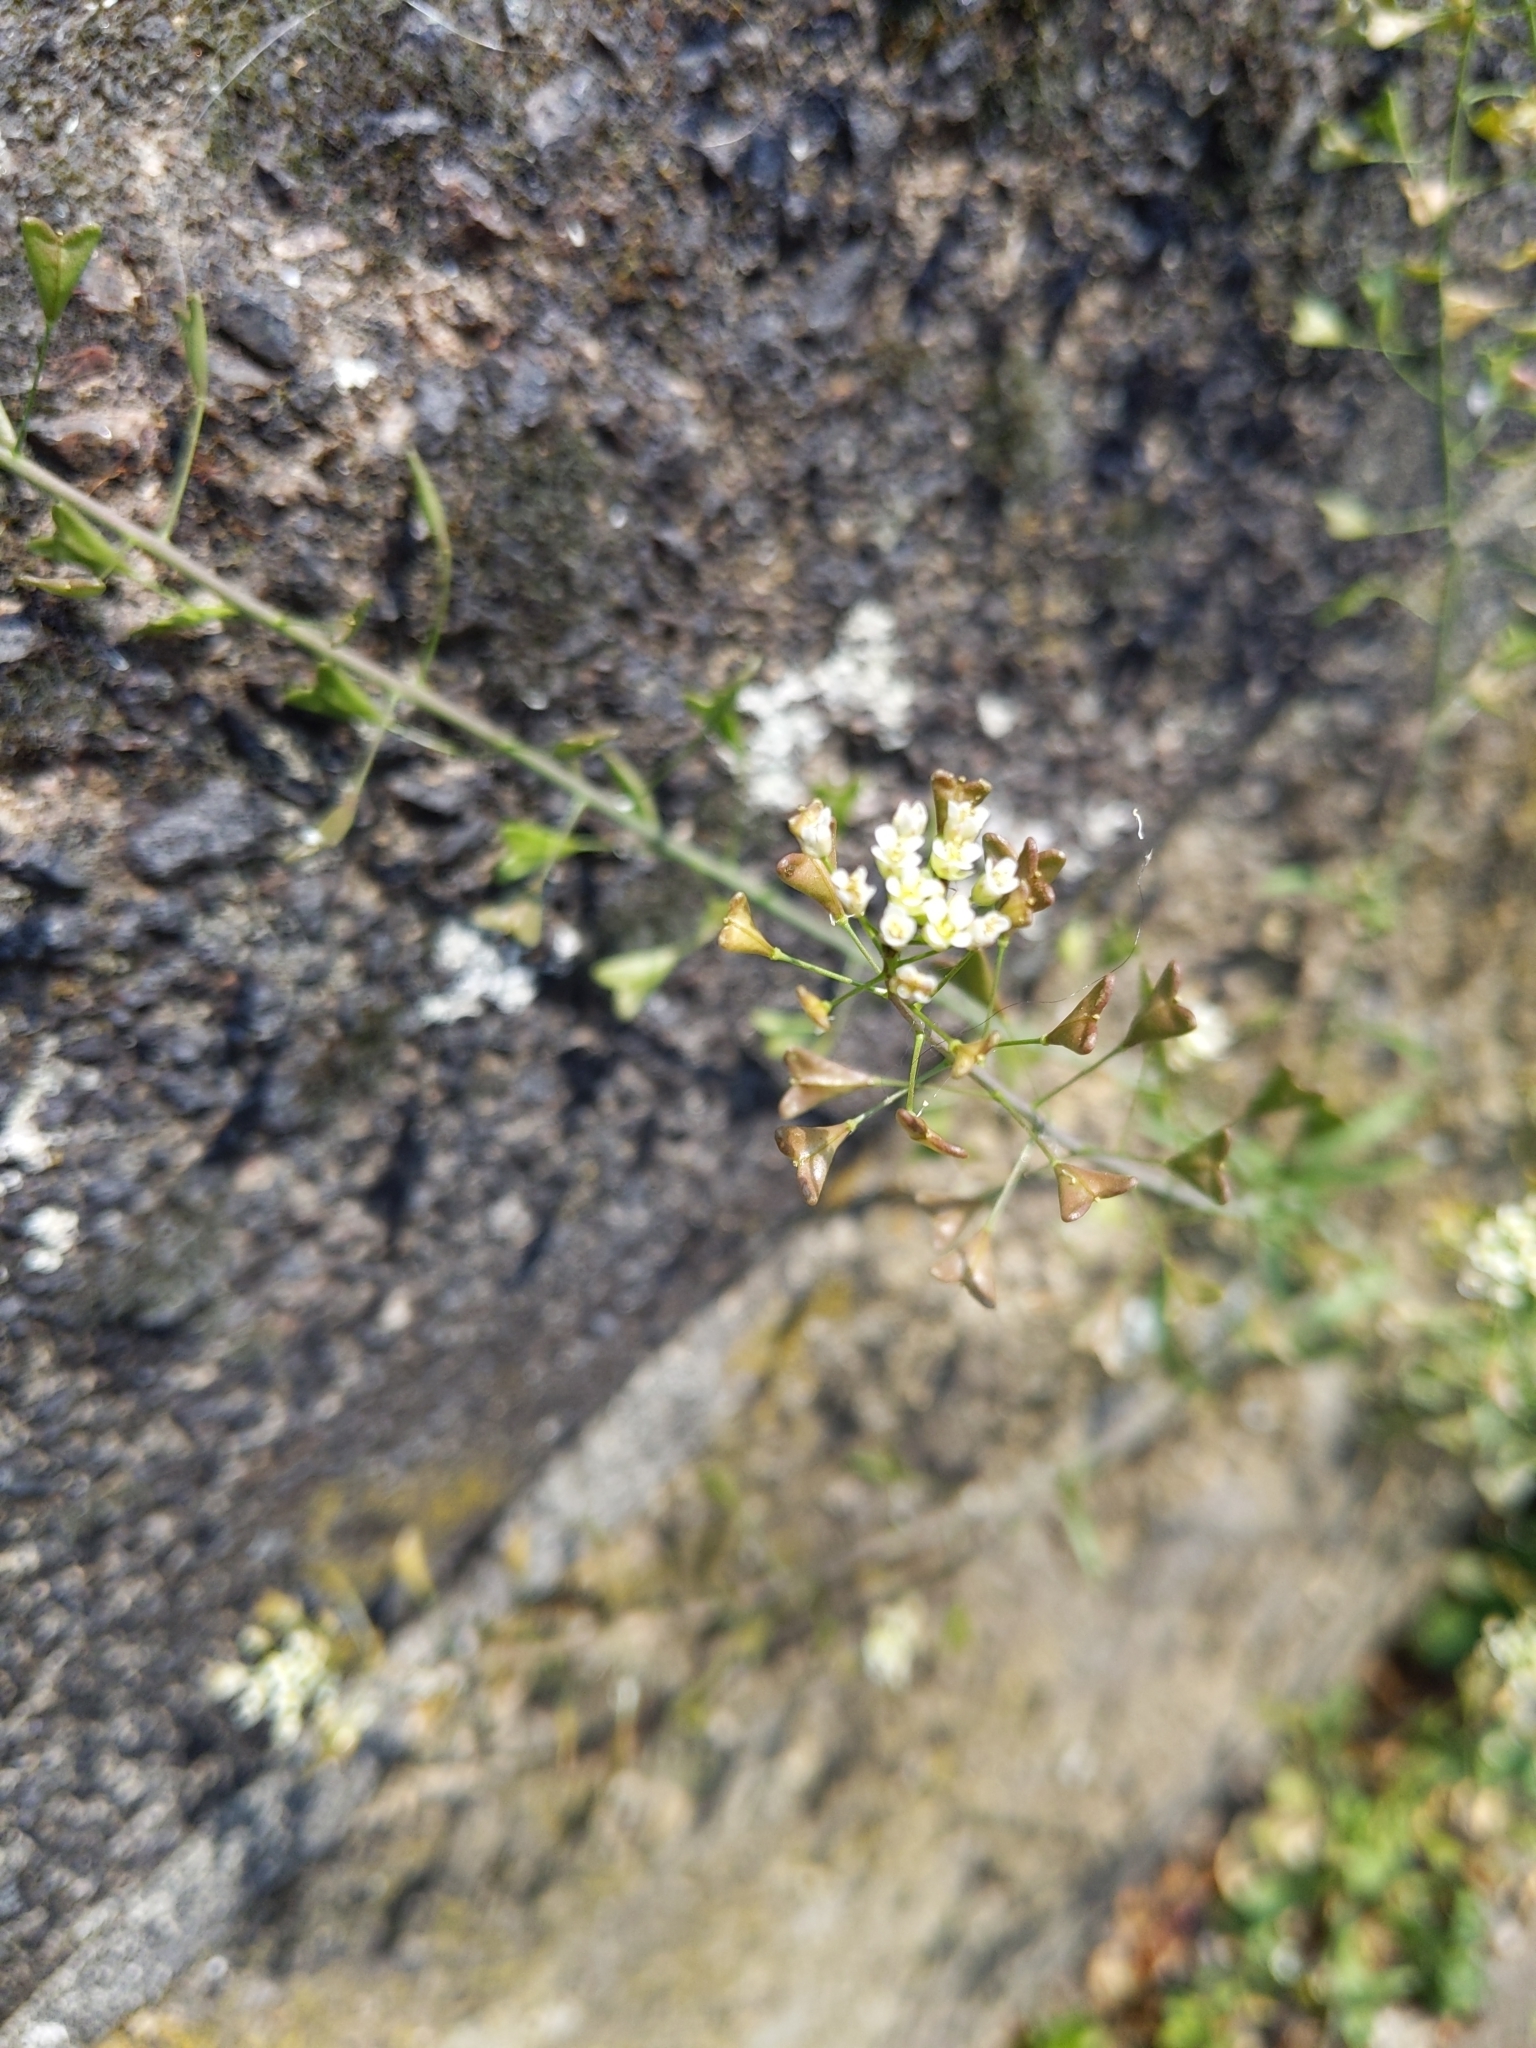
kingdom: Plantae
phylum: Tracheophyta
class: Magnoliopsida
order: Brassicales
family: Brassicaceae
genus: Capsella
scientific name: Capsella bursa-pastoris
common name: Shepherd's purse
